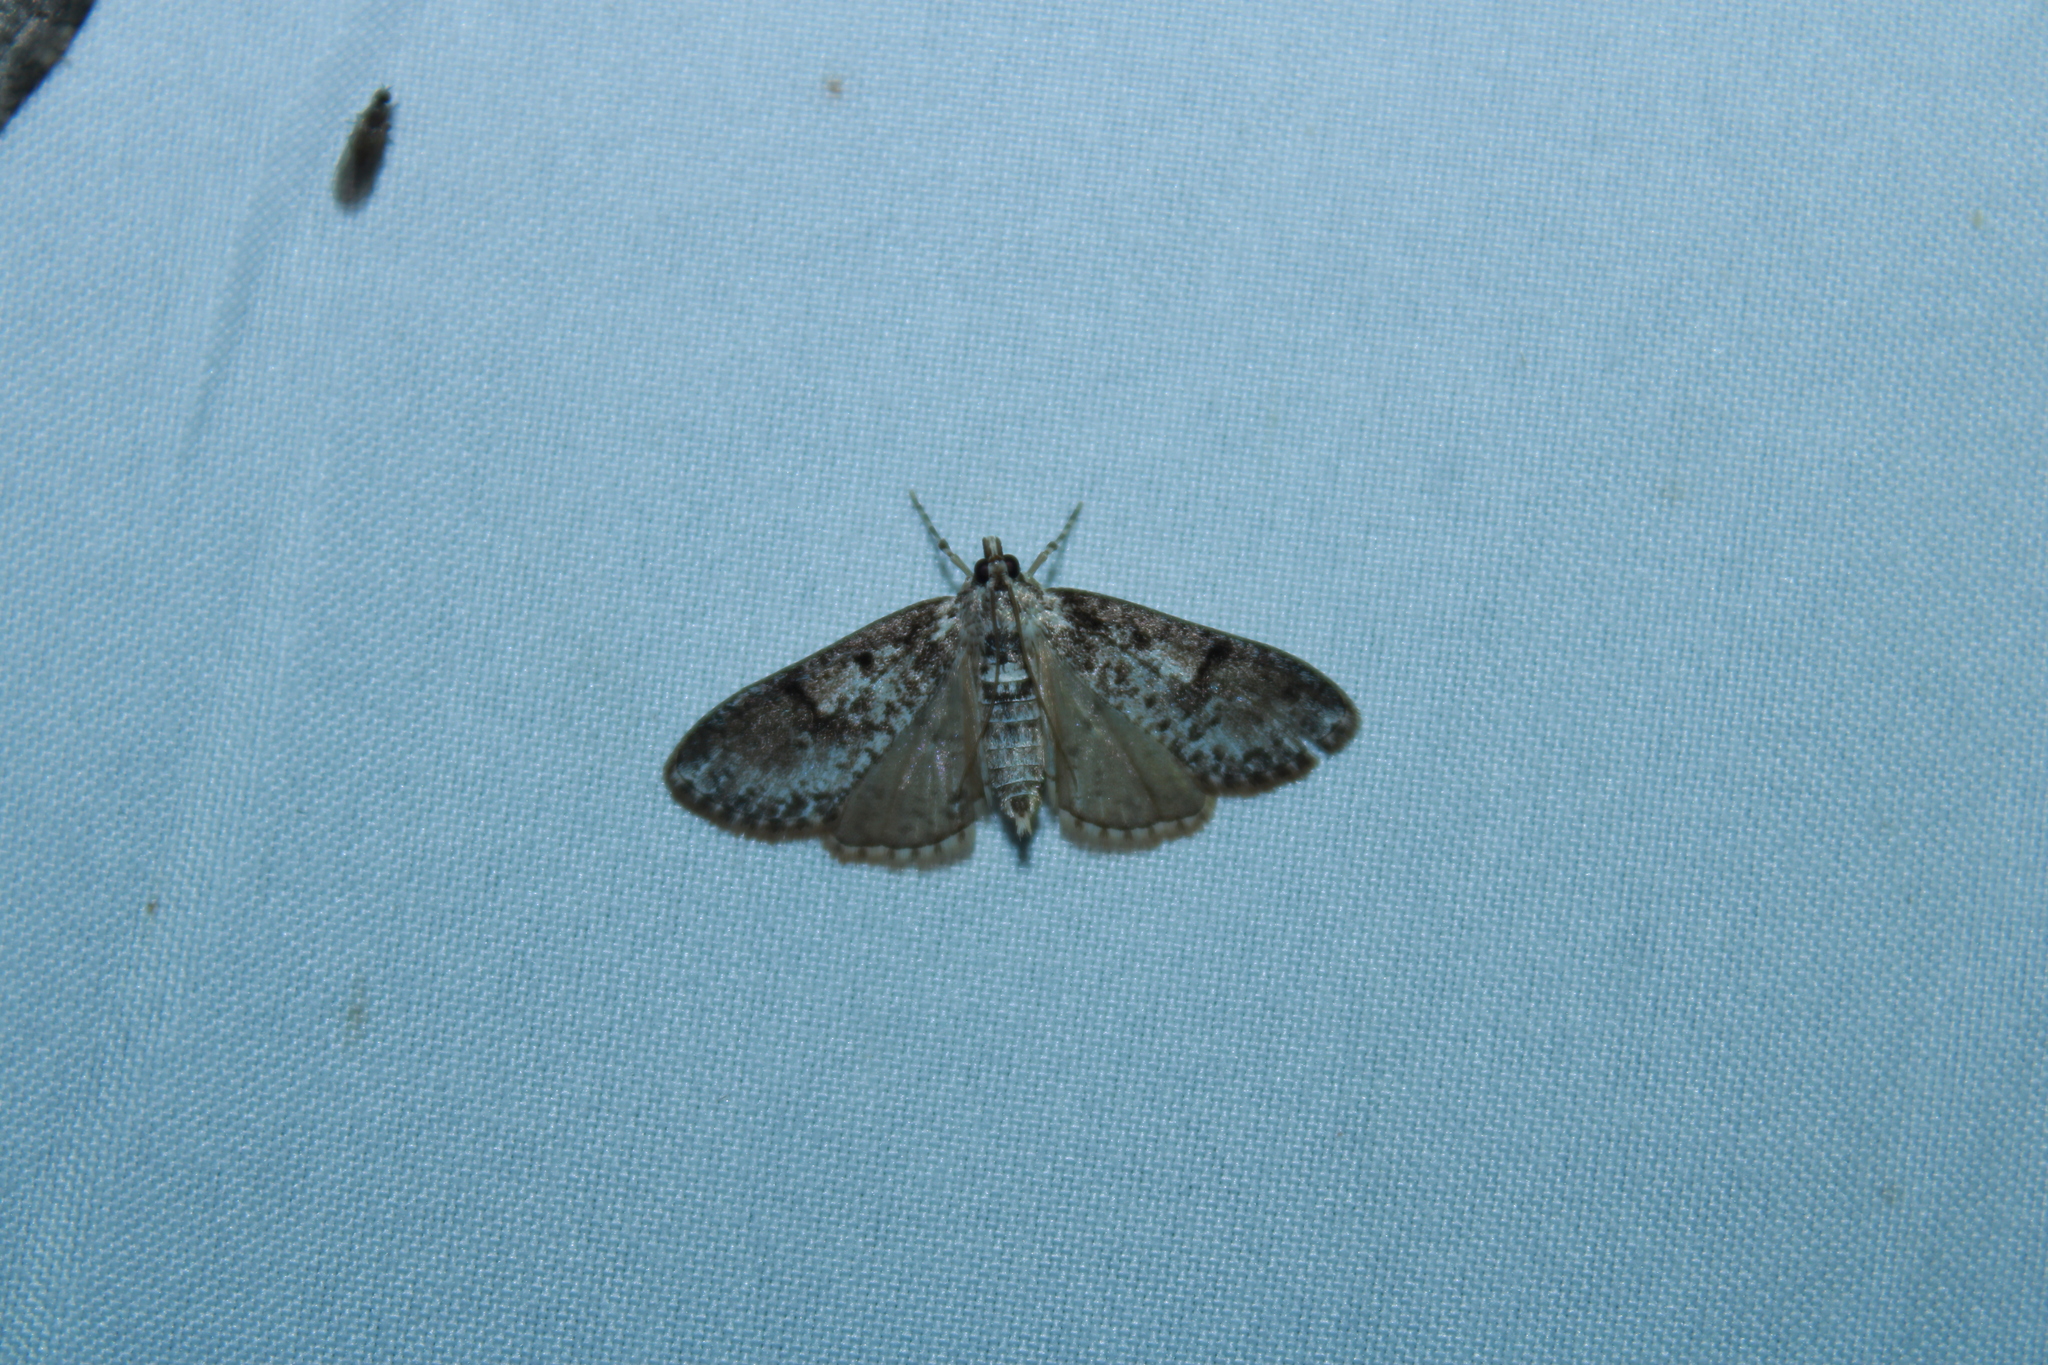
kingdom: Animalia
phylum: Arthropoda
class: Insecta
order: Lepidoptera
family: Crambidae
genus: Palpita
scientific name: Palpita magniferalis
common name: Splendid palpita moth
